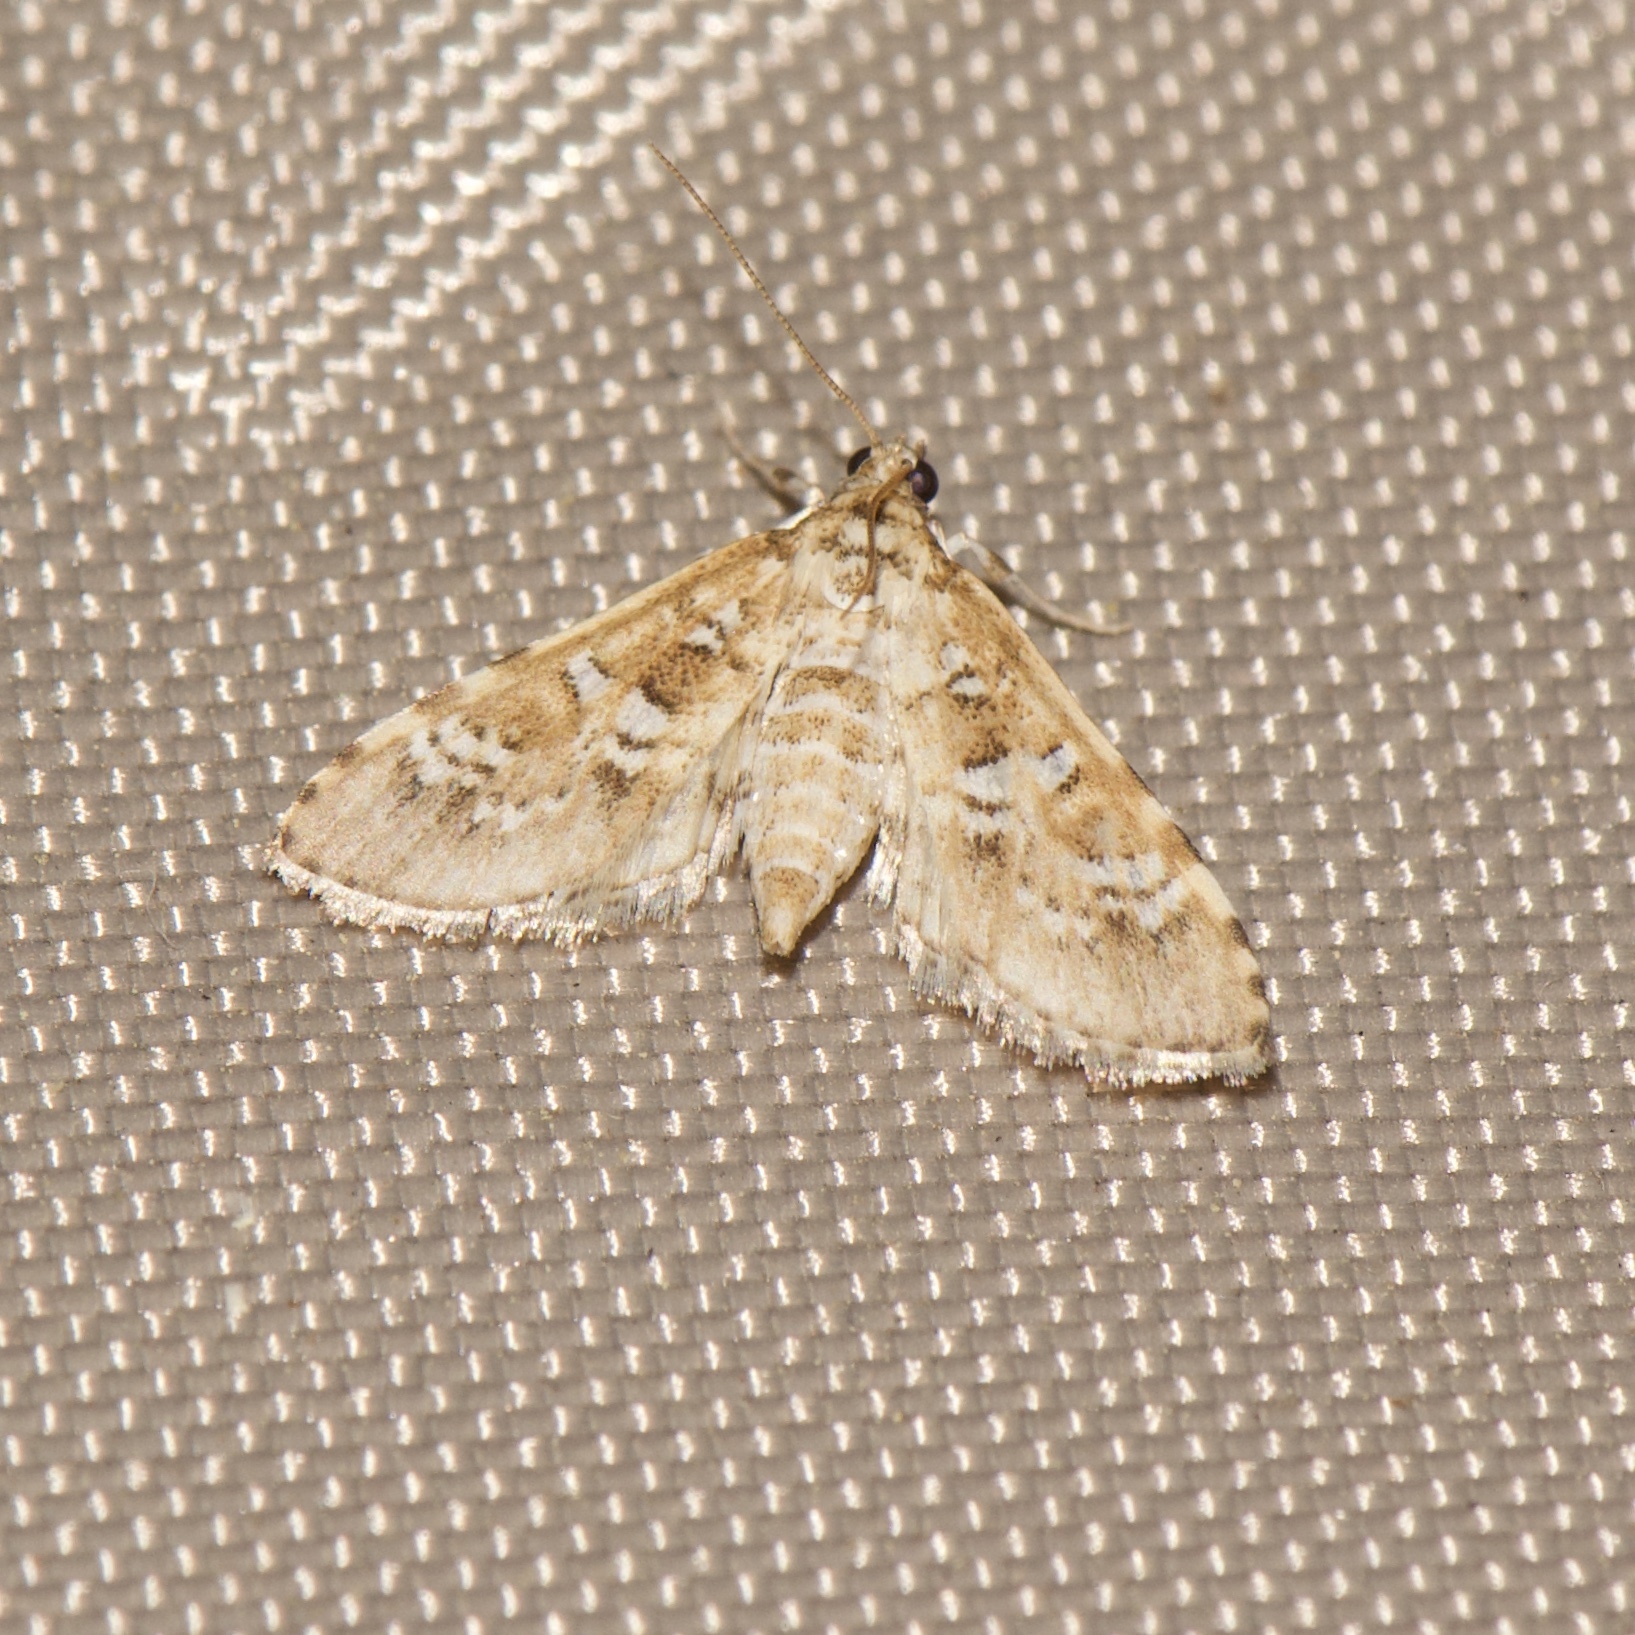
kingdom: Animalia
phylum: Arthropoda
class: Insecta
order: Lepidoptera
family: Crambidae
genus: Samea
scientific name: Samea multiplicalis
